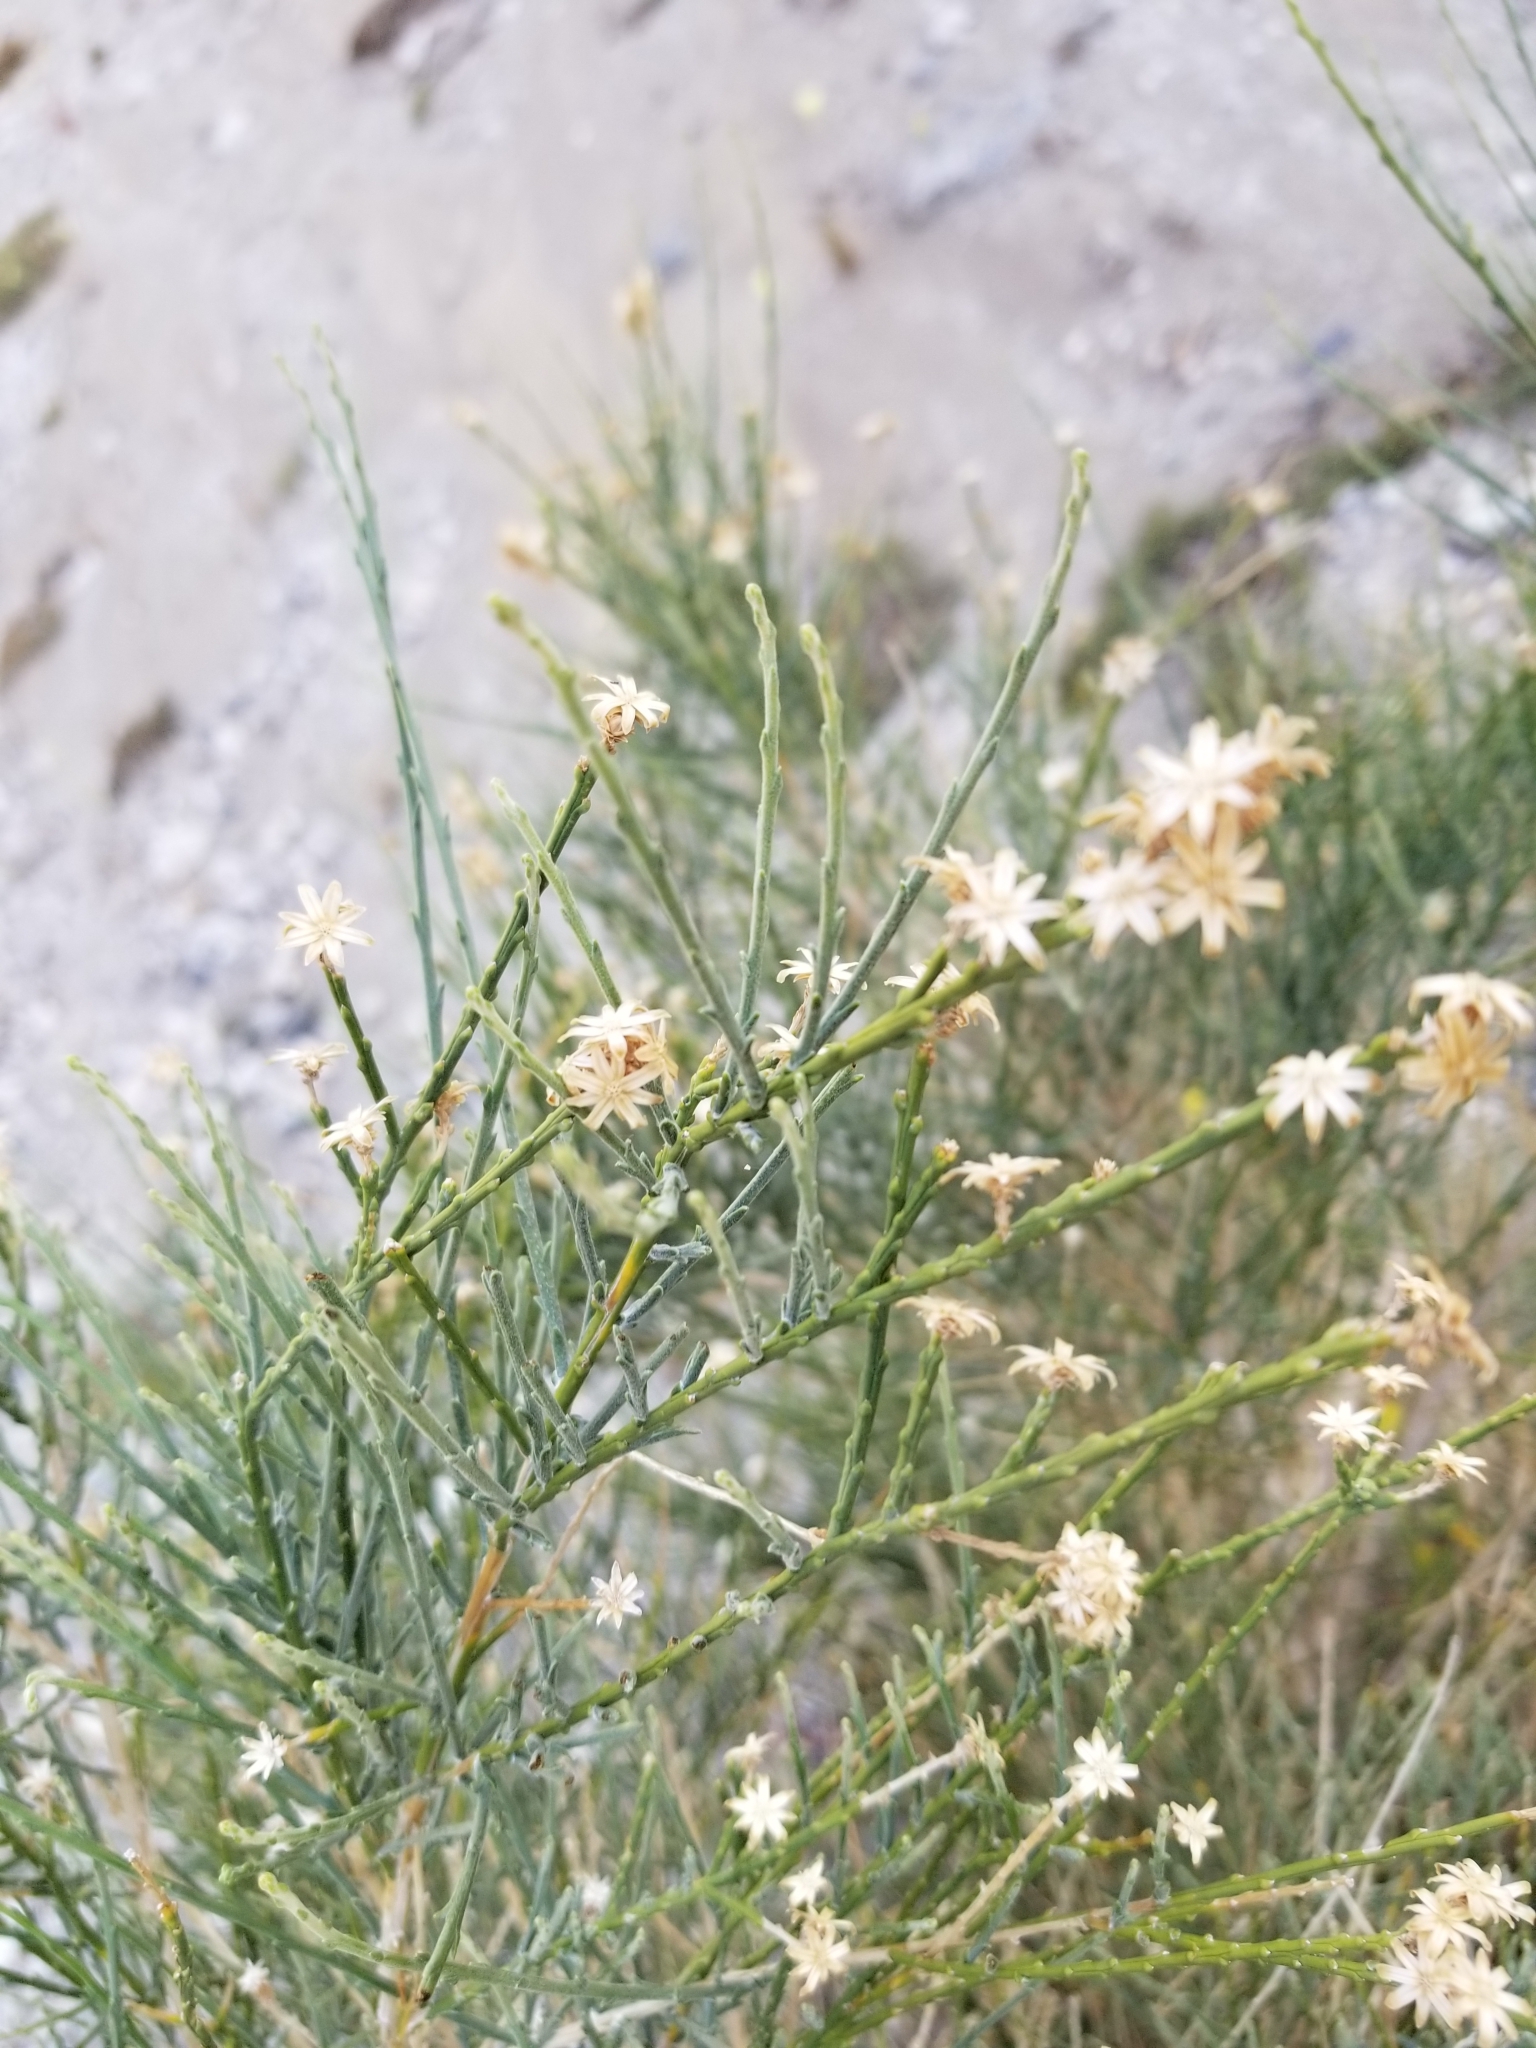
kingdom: Plantae
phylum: Tracheophyta
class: Magnoliopsida
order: Asterales
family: Asteraceae
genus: Lepidospartum
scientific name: Lepidospartum squamatum
